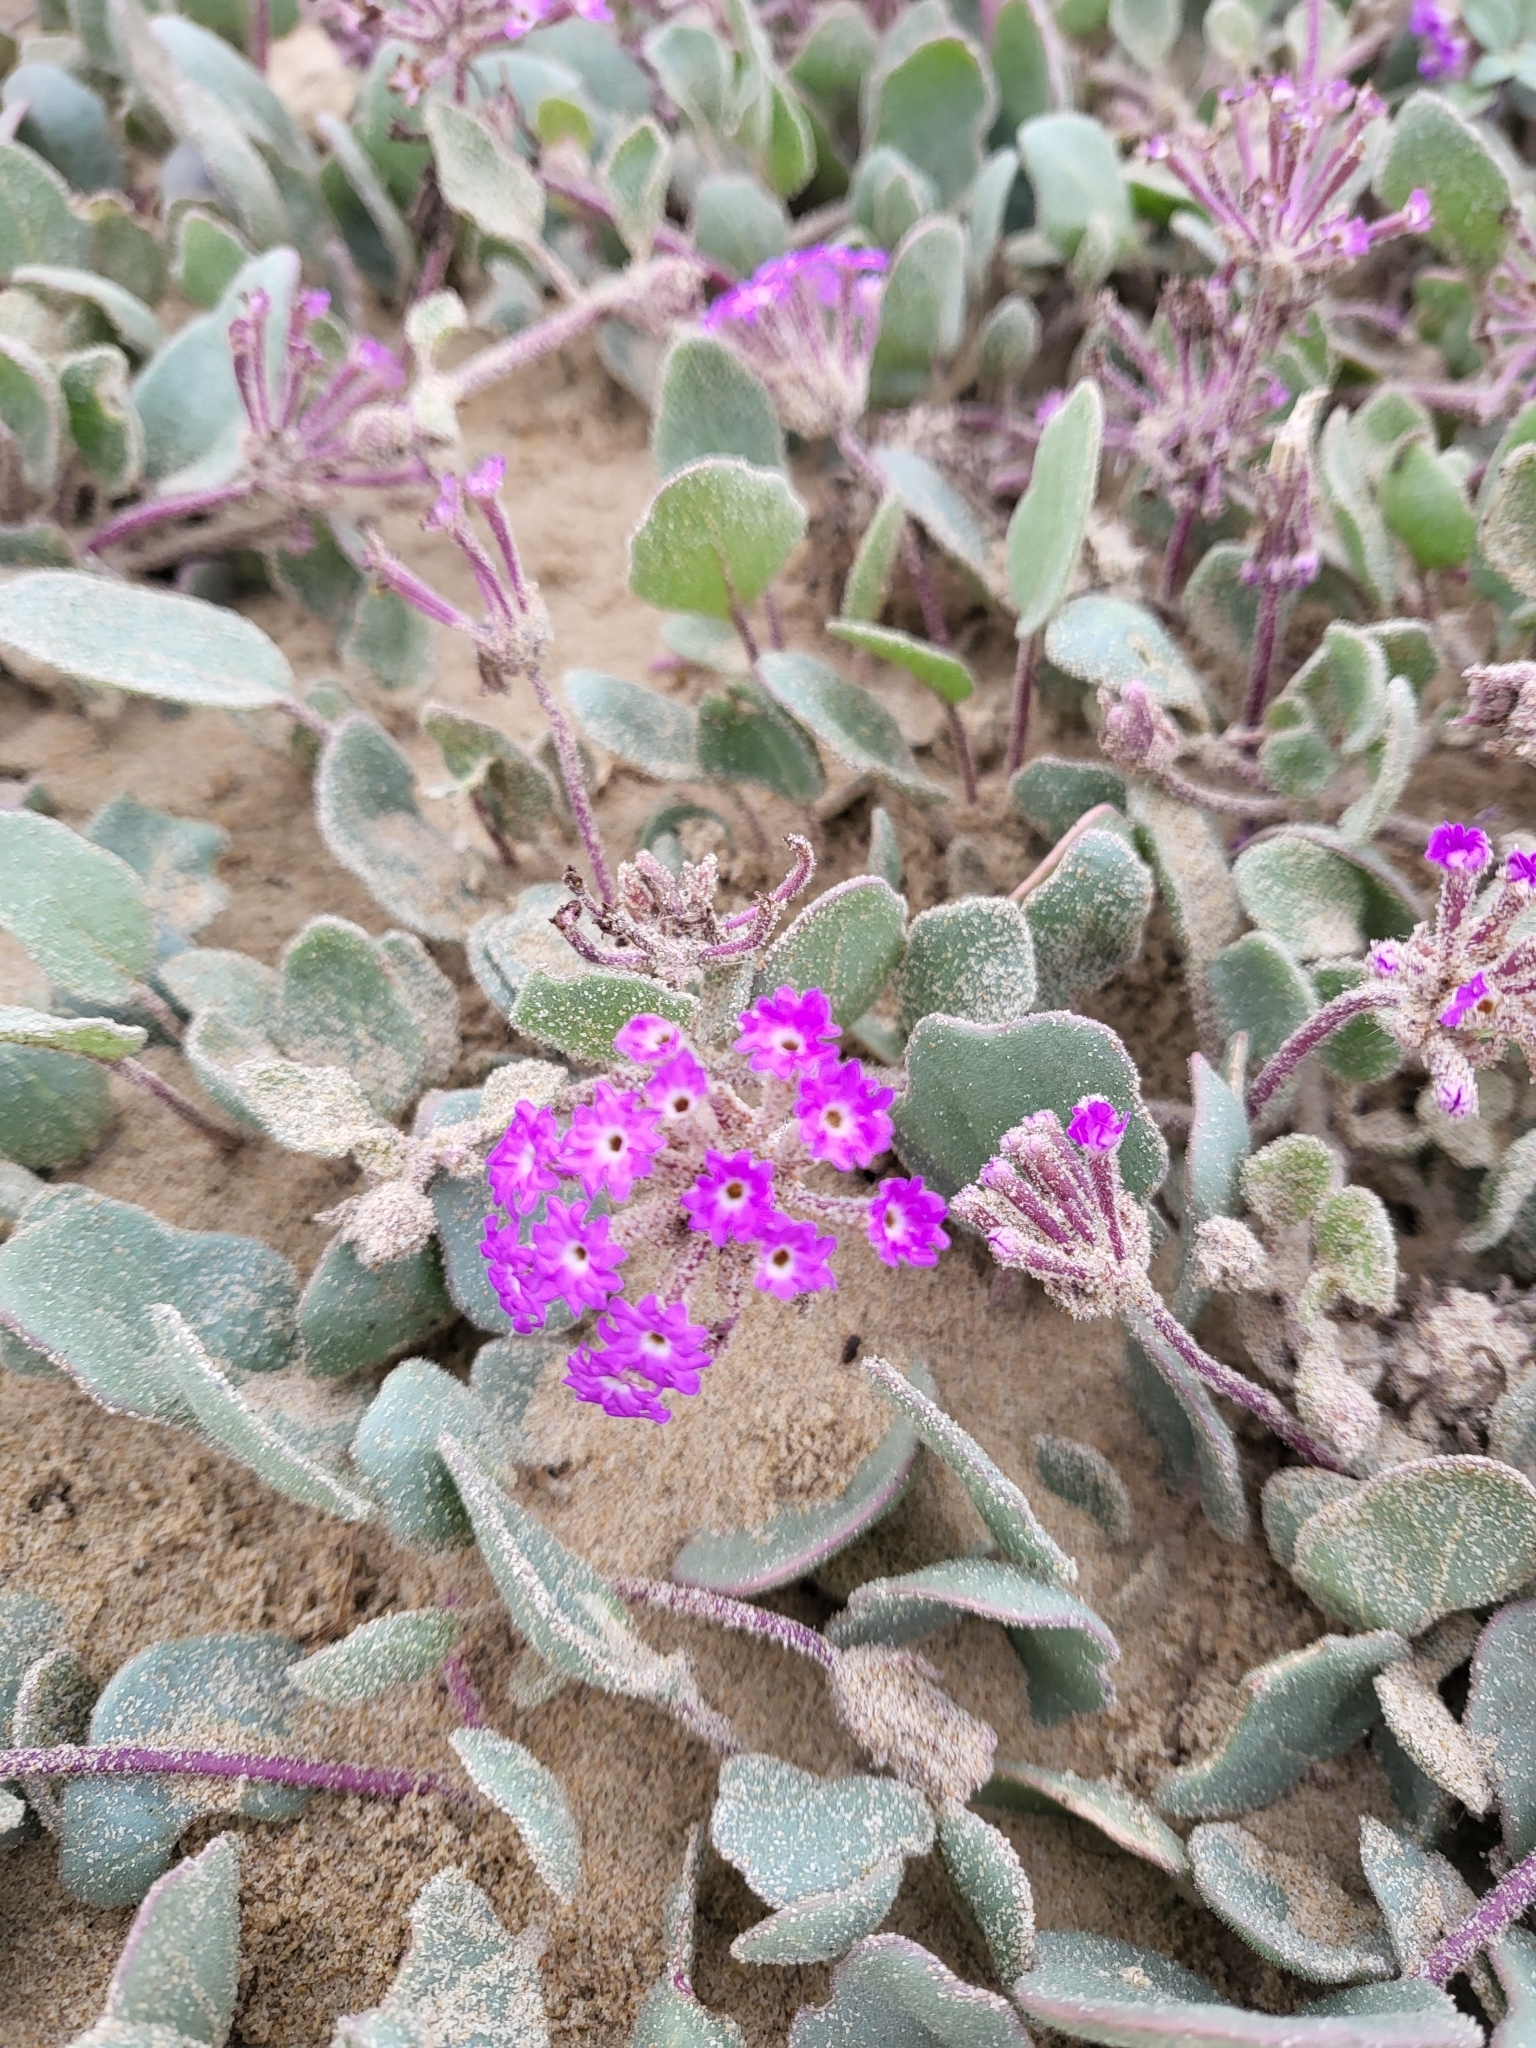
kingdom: Plantae
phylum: Tracheophyta
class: Magnoliopsida
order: Caryophyllales
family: Nyctaginaceae
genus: Abronia
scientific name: Abronia umbellata
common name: Sand-verbena
